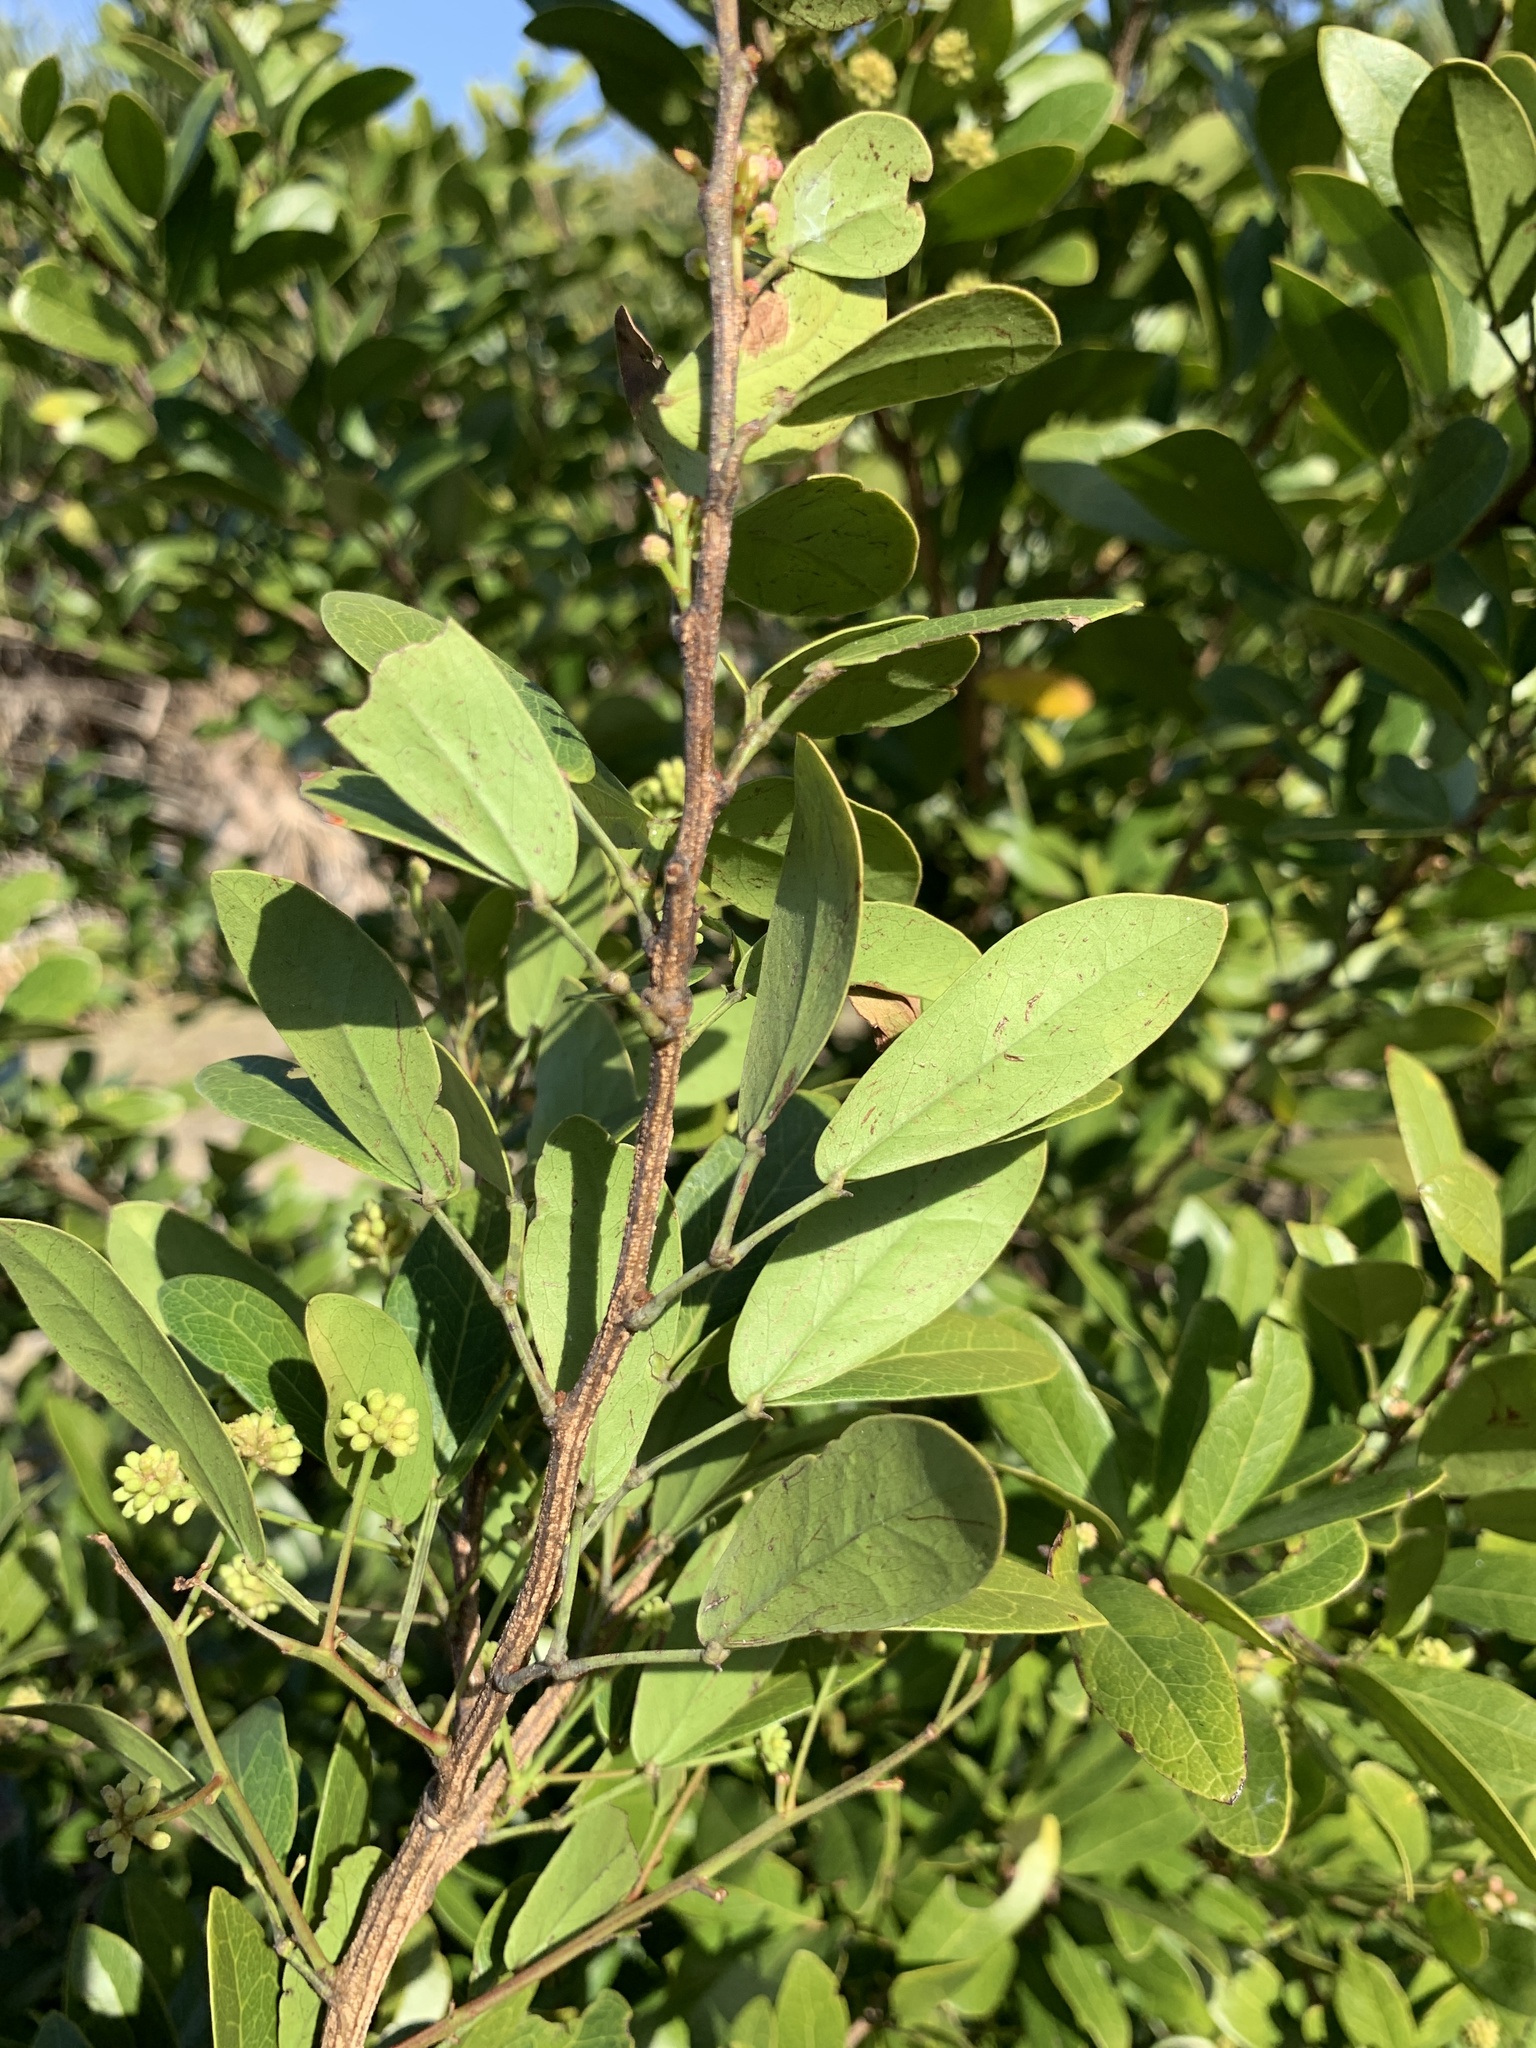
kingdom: Plantae
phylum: Tracheophyta
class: Magnoliopsida
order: Fabales
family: Fabaceae
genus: Pithecellobium
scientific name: Pithecellobium unguis-cati
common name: Cat's-claw
